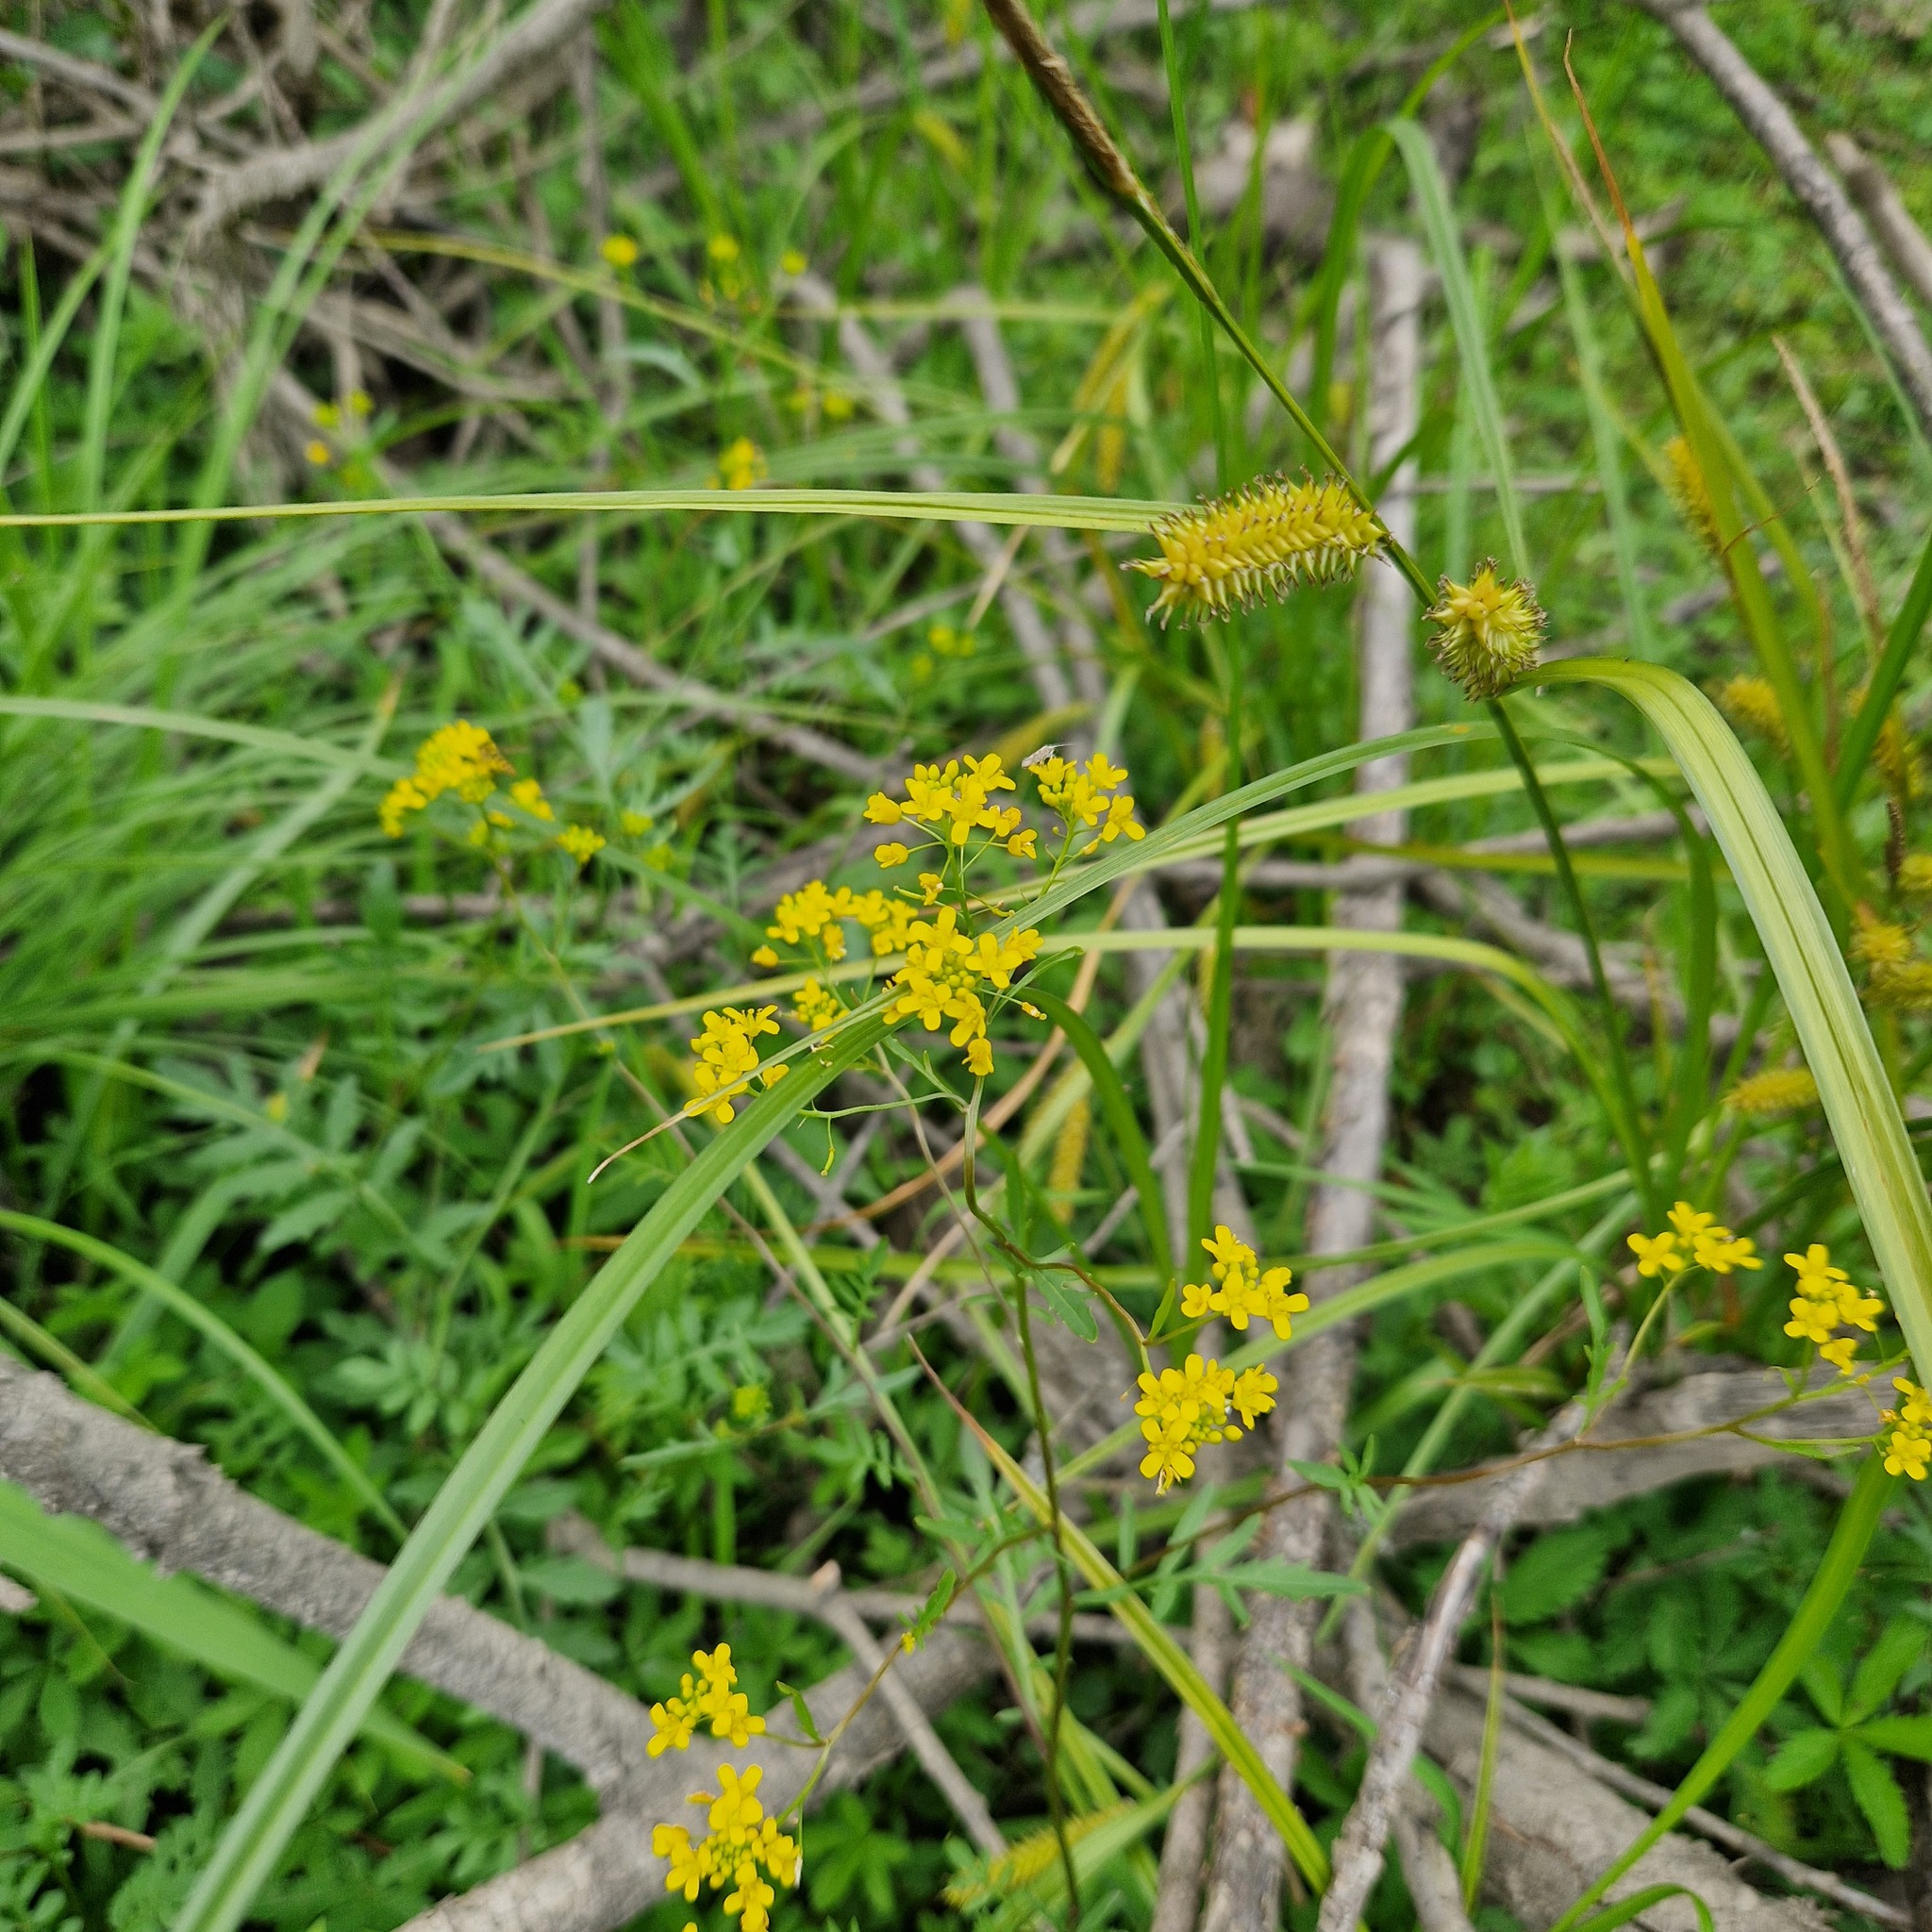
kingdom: Plantae
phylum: Tracheophyta
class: Magnoliopsida
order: Brassicales
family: Brassicaceae
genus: Rorippa
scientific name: Rorippa sylvestris
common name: Creeping yellowcress
